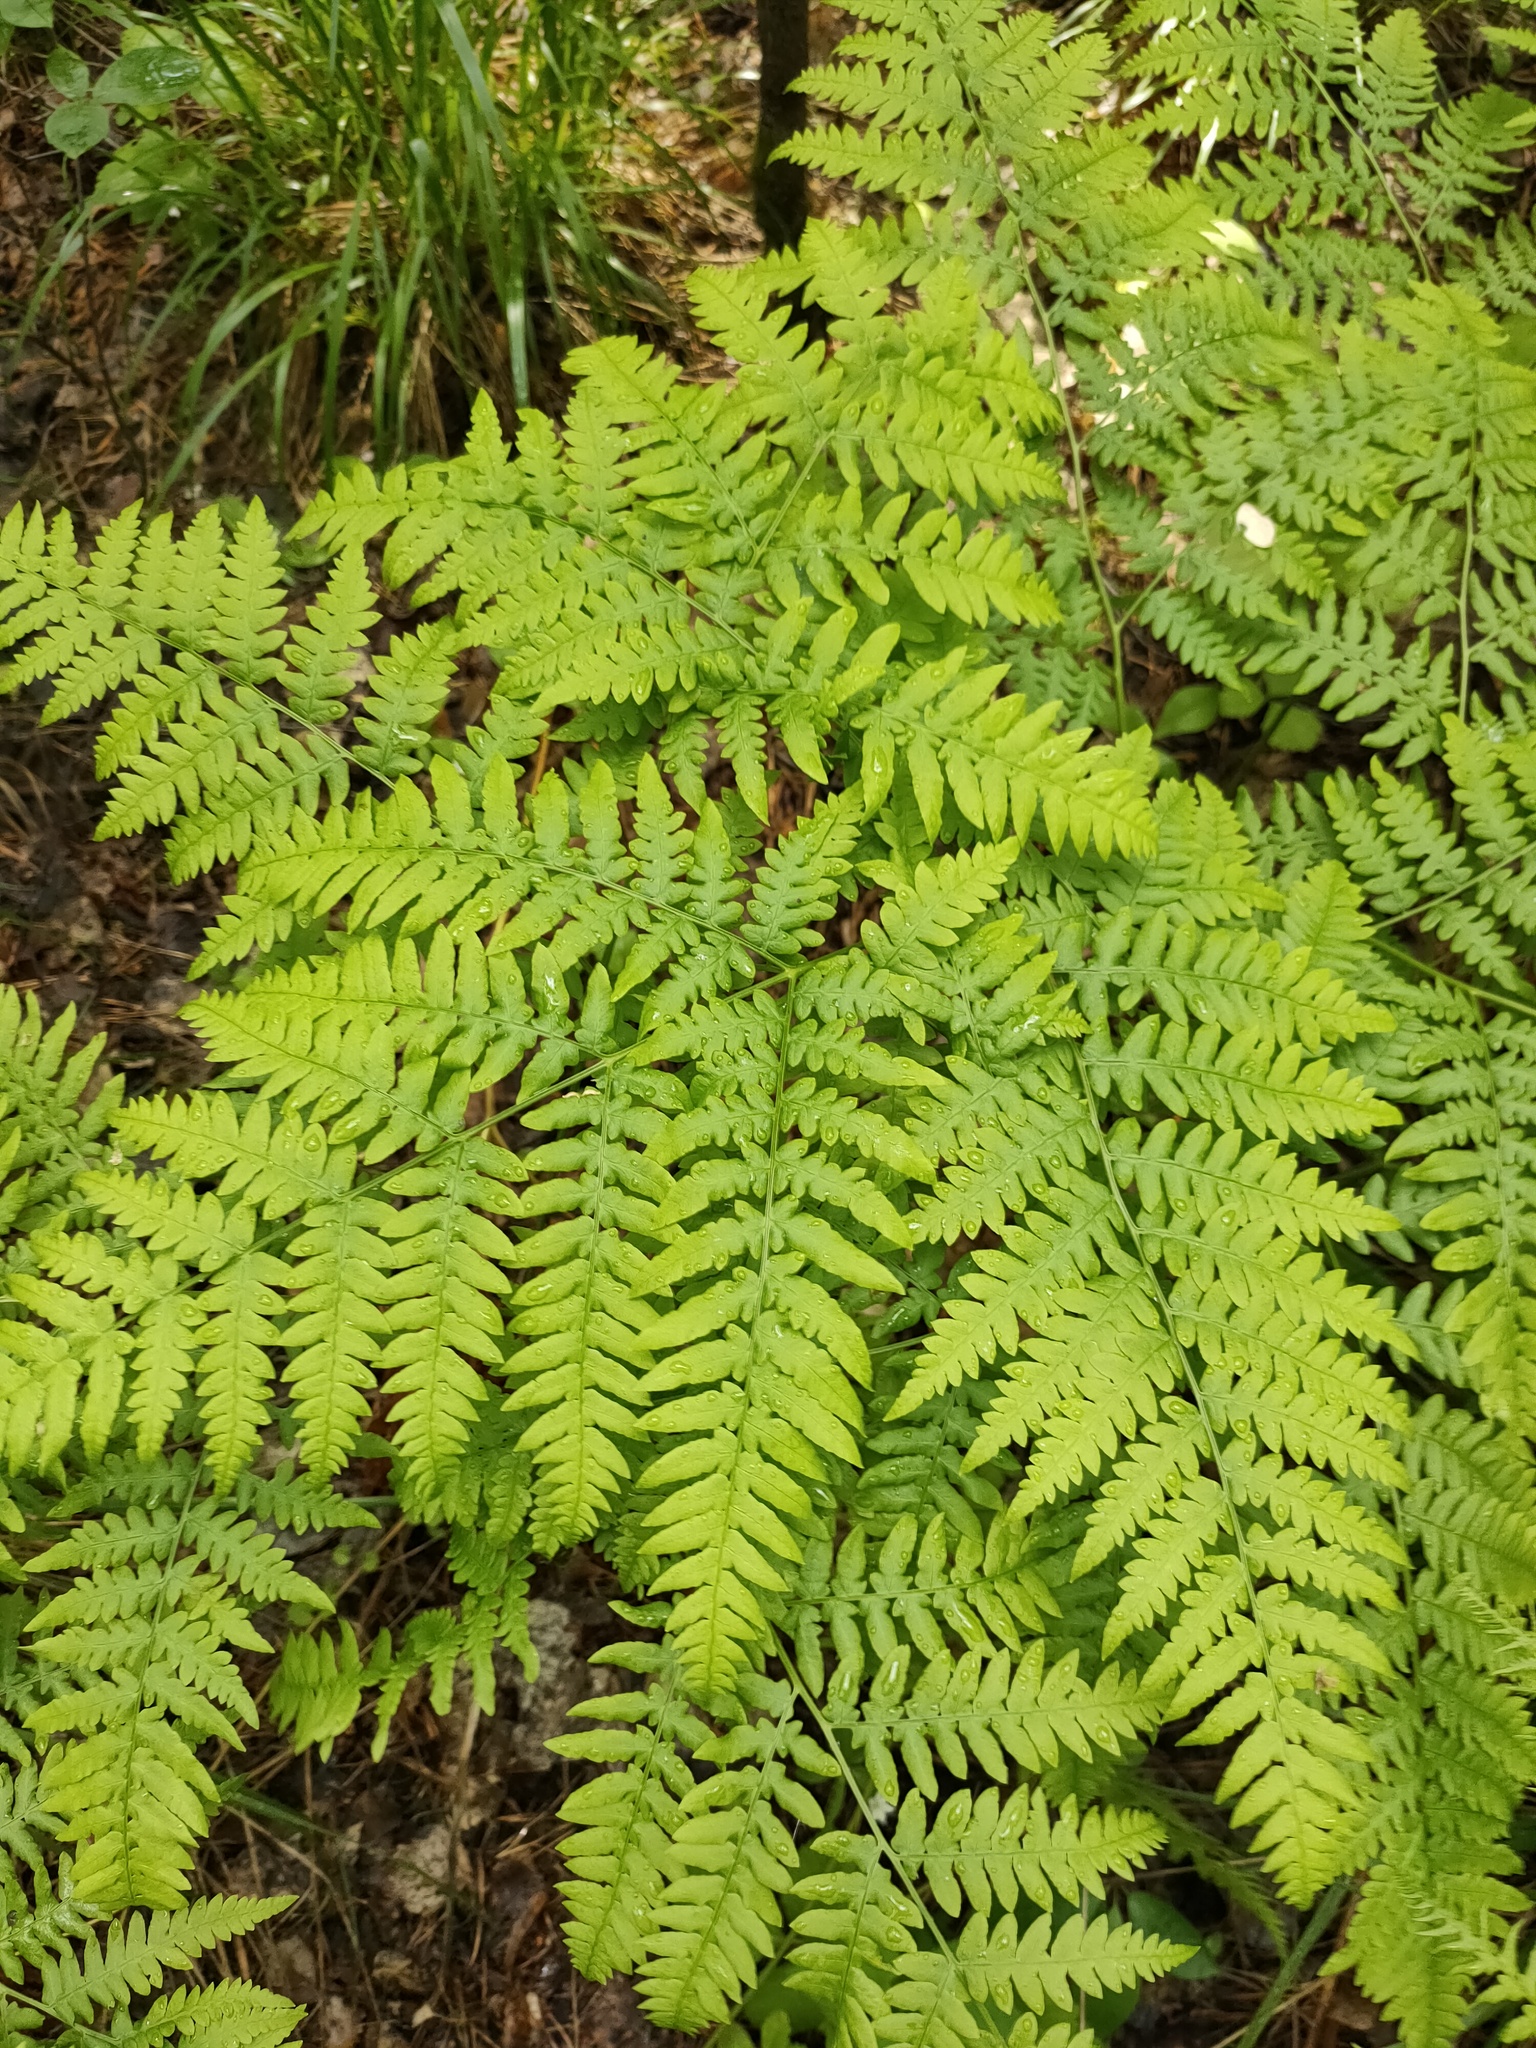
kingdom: Plantae
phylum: Tracheophyta
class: Polypodiopsida
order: Polypodiales
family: Dennstaedtiaceae
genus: Pteridium
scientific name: Pteridium aquilinum
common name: Bracken
